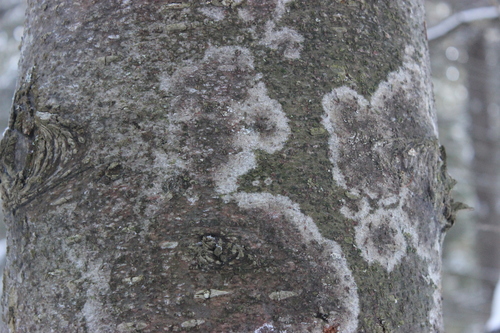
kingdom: Fungi
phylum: Ascomycota
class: Lecanoromycetes
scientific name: Lecanoromycetes
